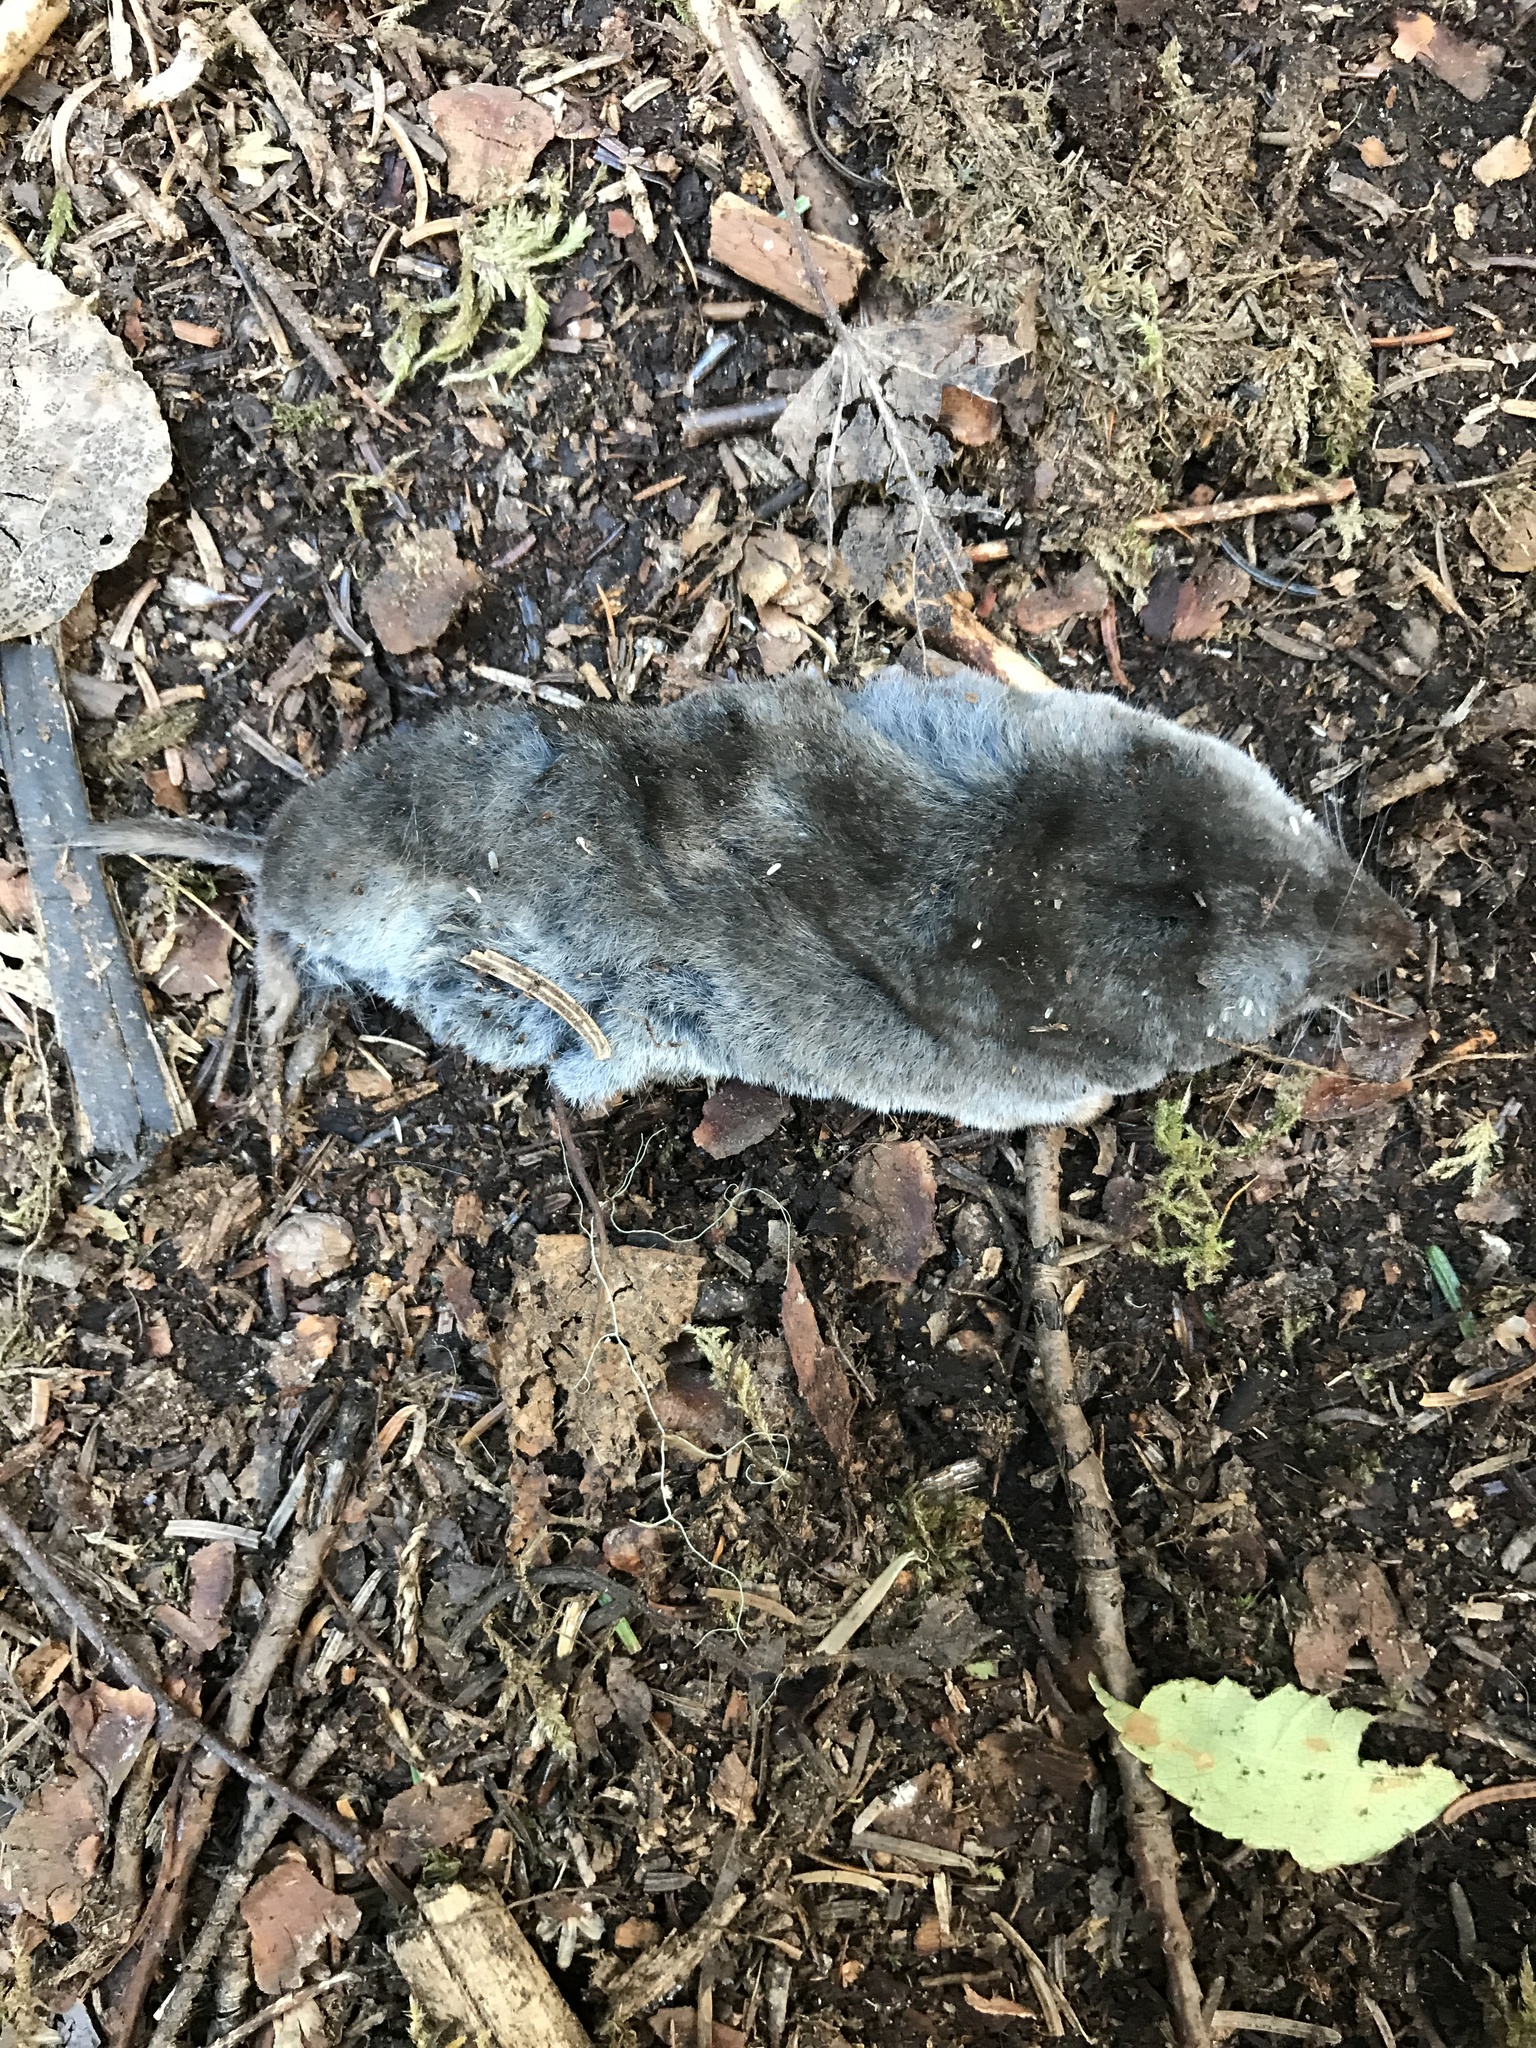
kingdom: Animalia
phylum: Chordata
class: Mammalia
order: Soricomorpha
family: Soricidae
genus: Blarina
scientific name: Blarina brevicauda
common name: Northern short-tailed shrew
